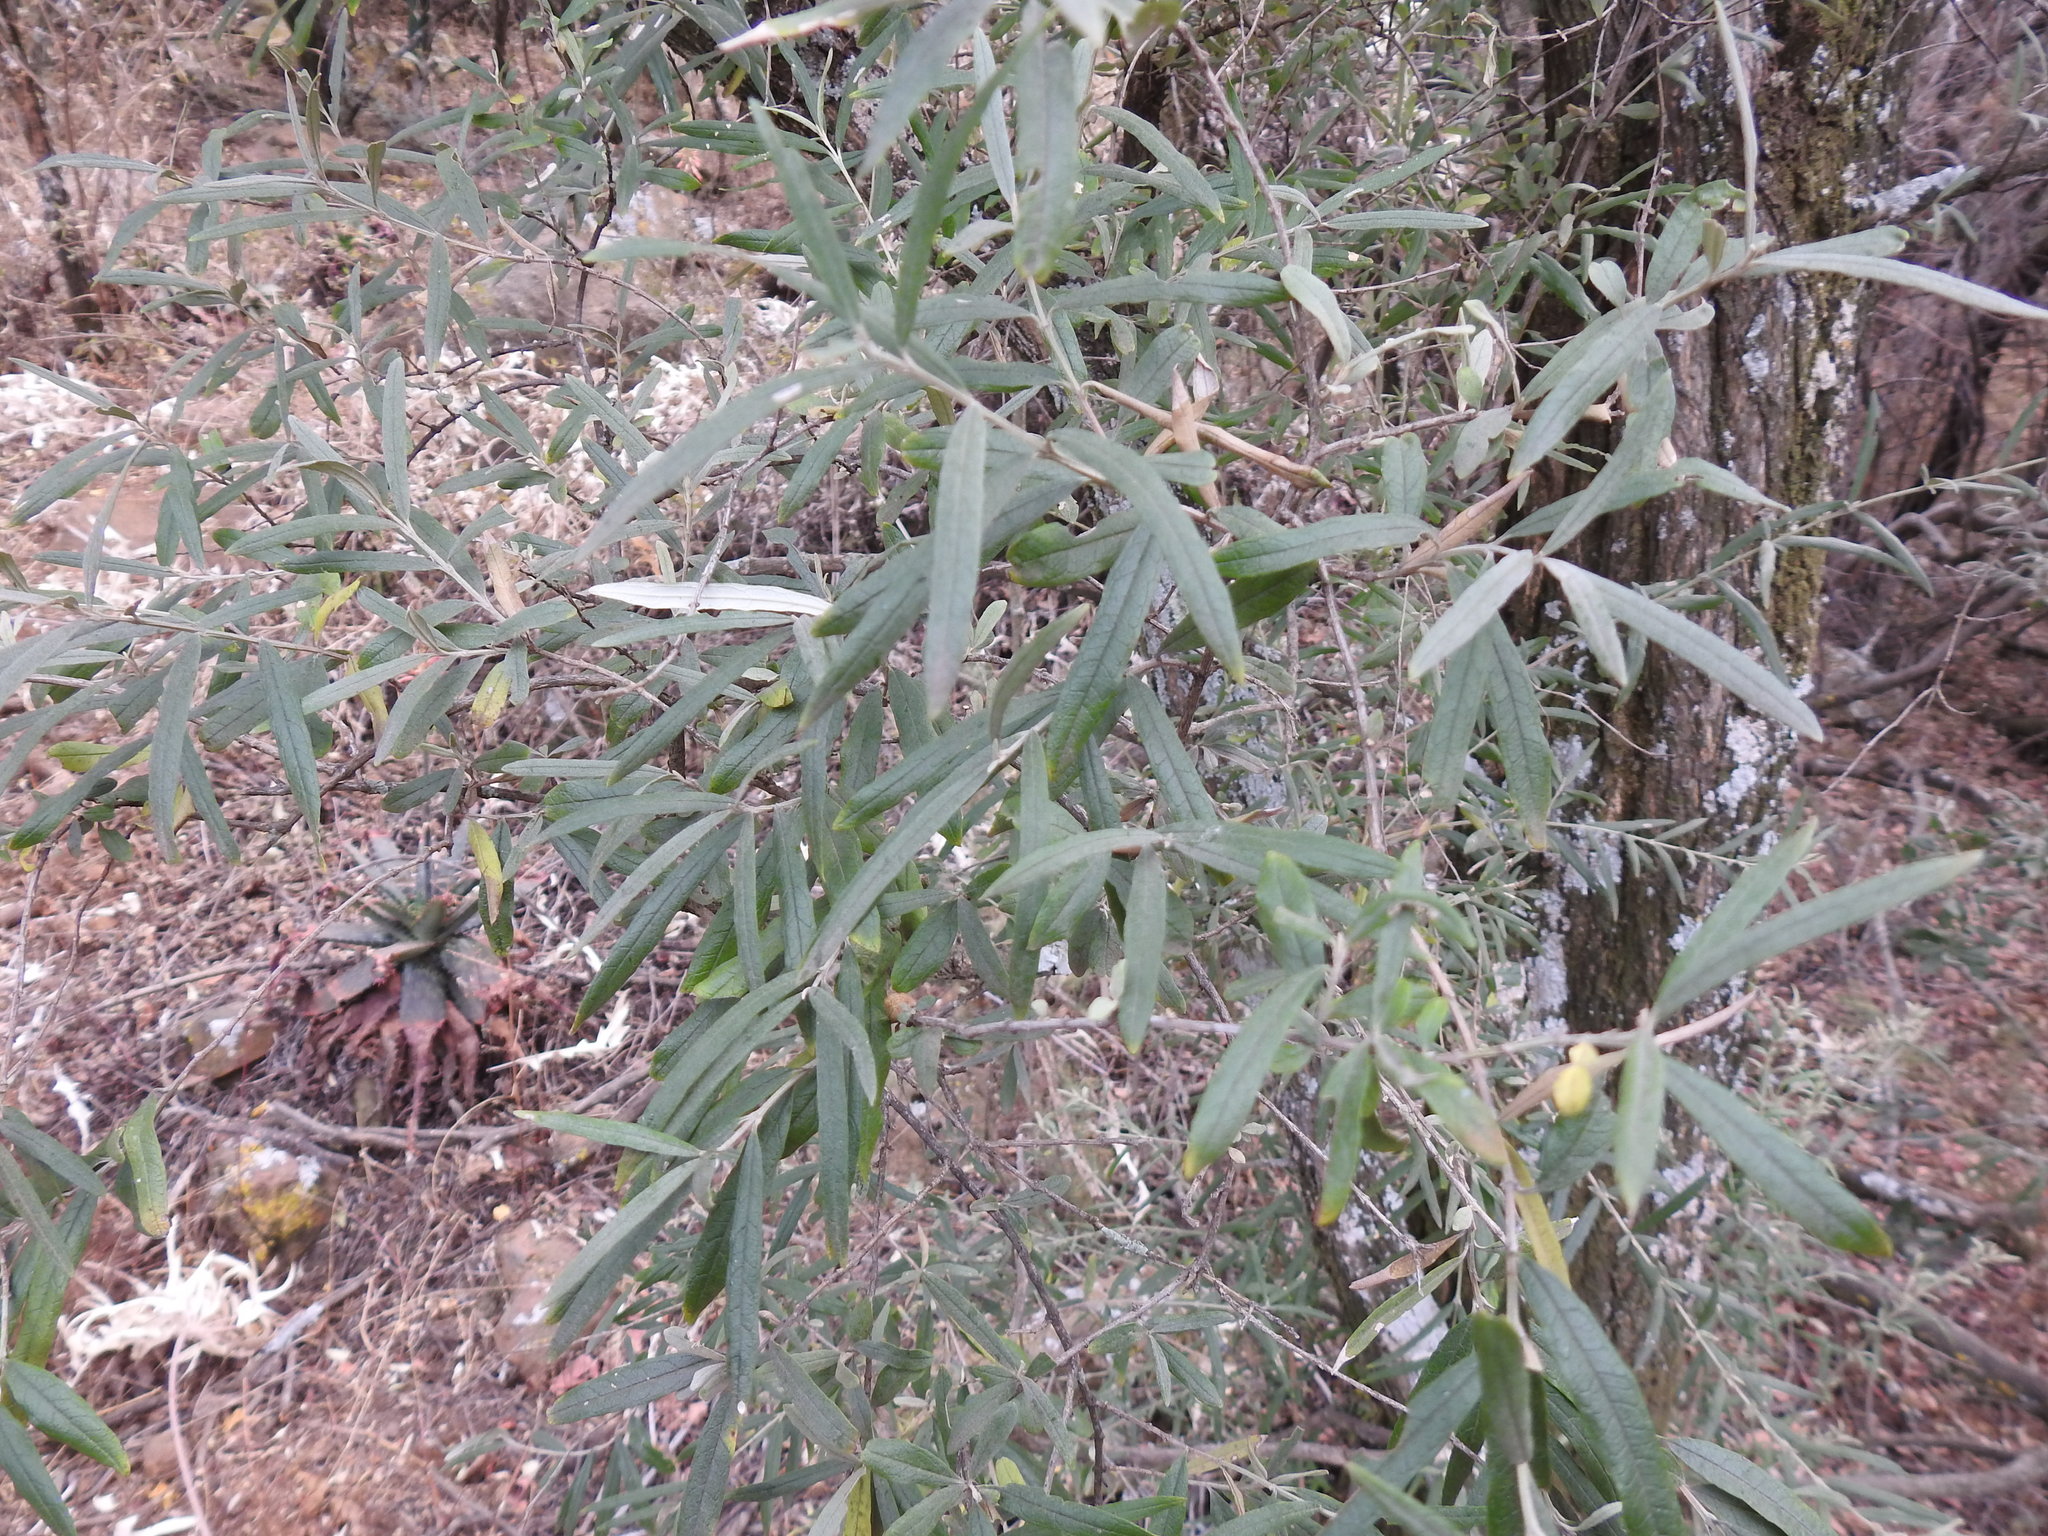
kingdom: Plantae
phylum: Tracheophyta
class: Magnoliopsida
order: Lamiales
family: Oleaceae
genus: Olea
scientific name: Olea europaea
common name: Olive
